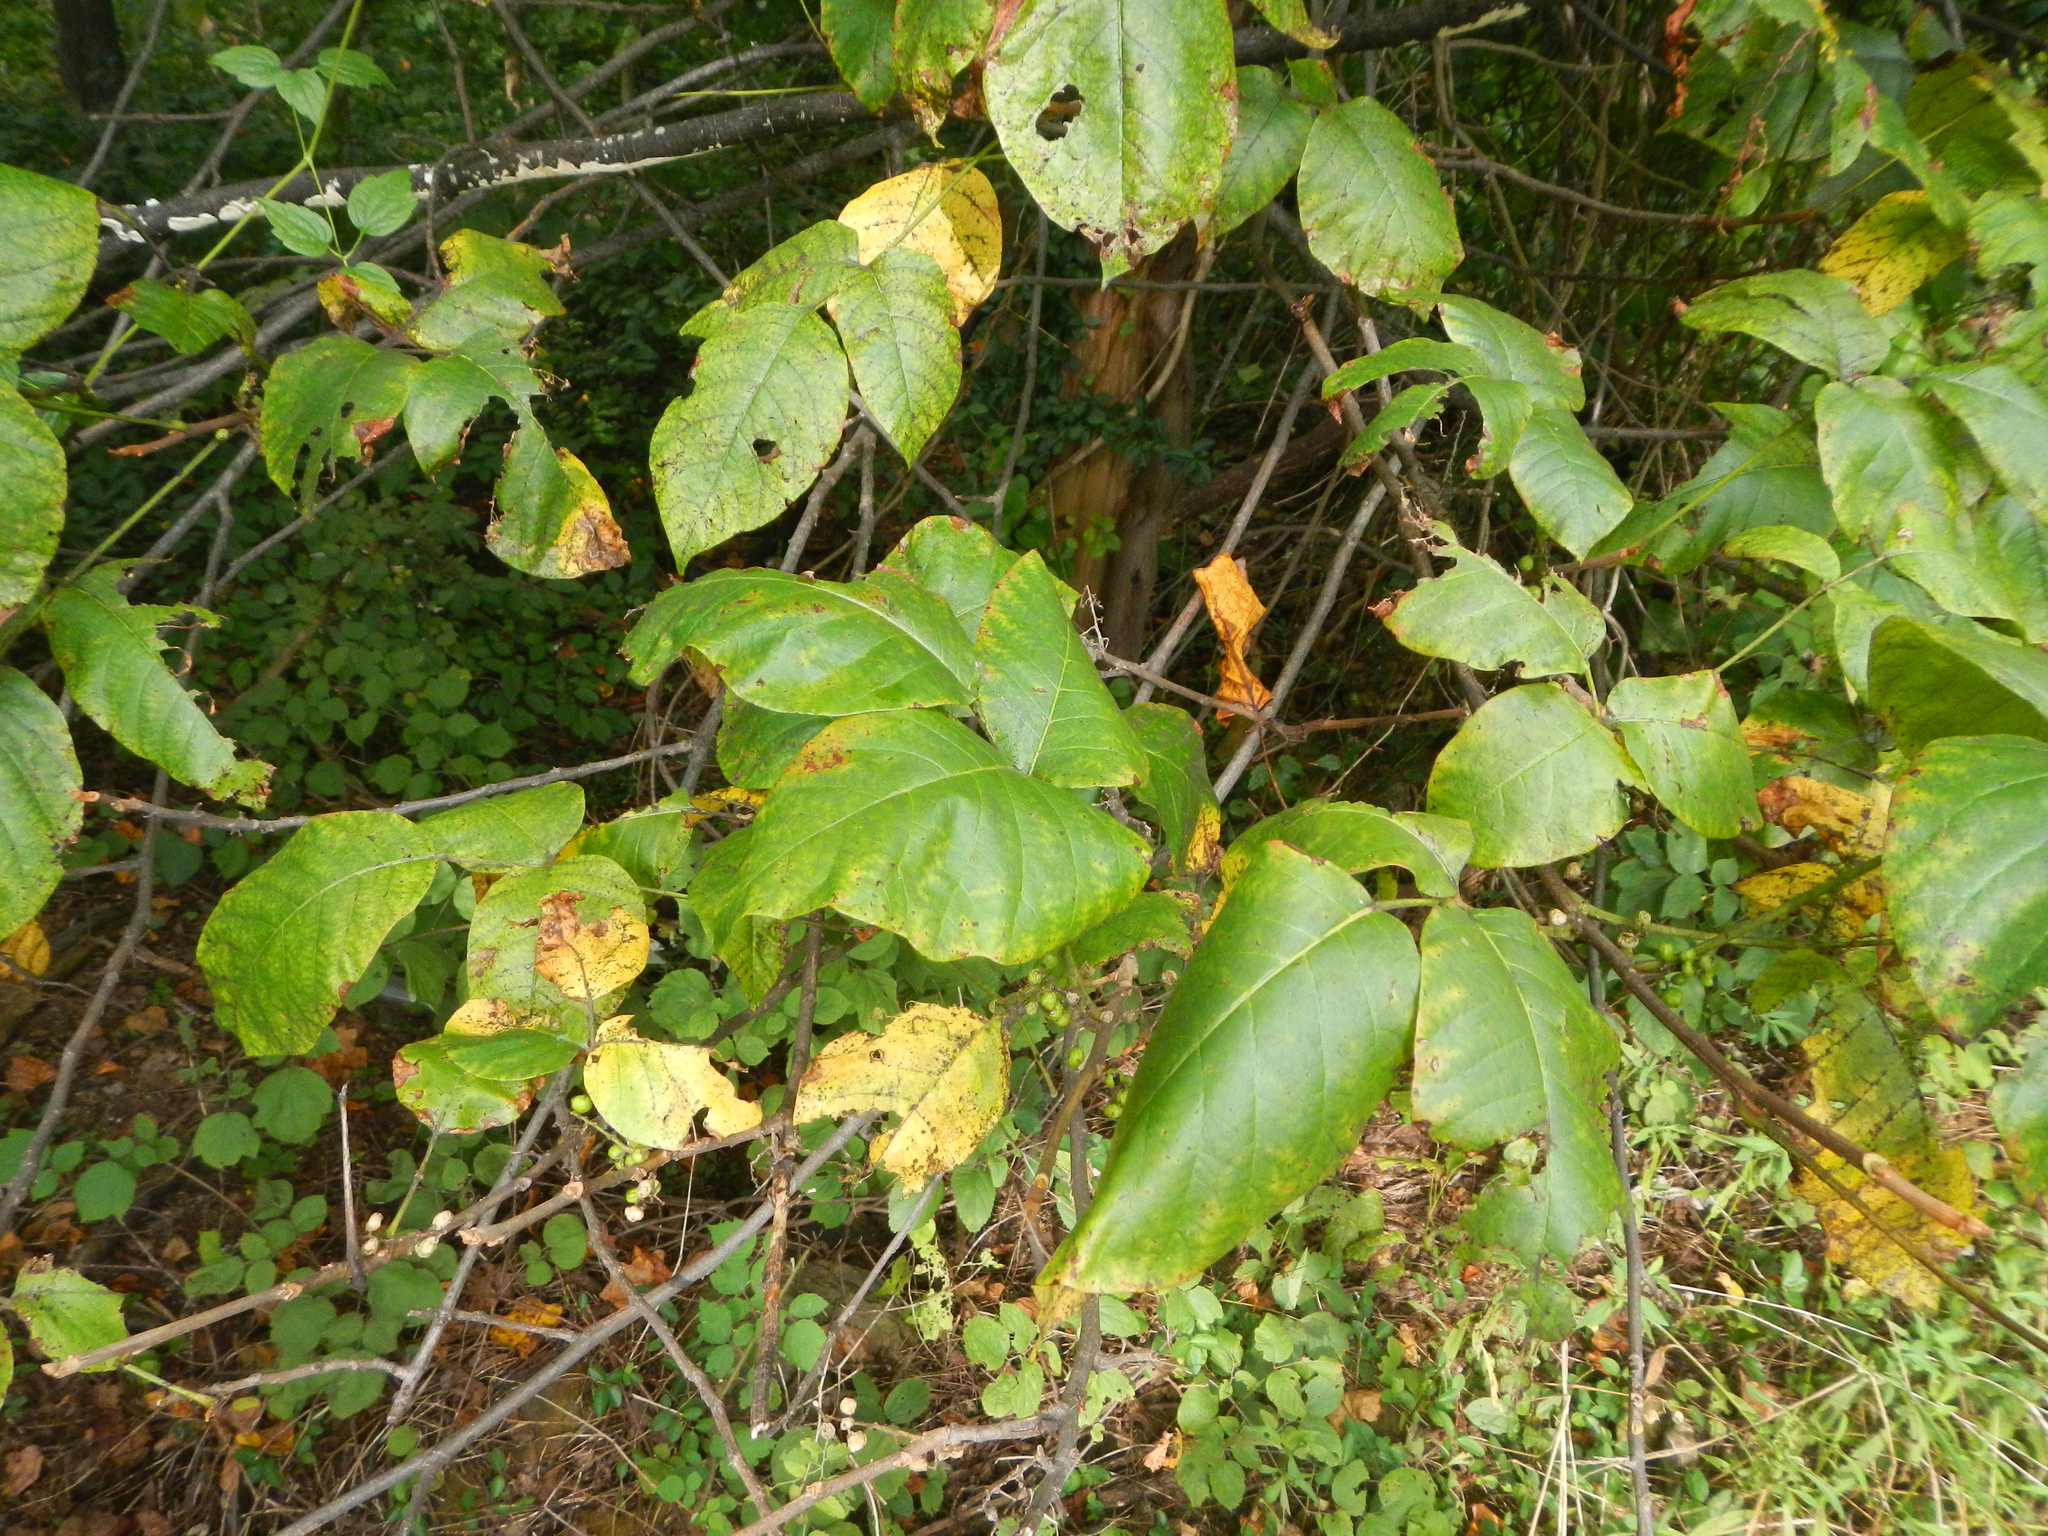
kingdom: Plantae
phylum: Tracheophyta
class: Magnoliopsida
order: Sapindales
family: Anacardiaceae
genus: Toxicodendron
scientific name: Toxicodendron radicans
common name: Poison ivy
